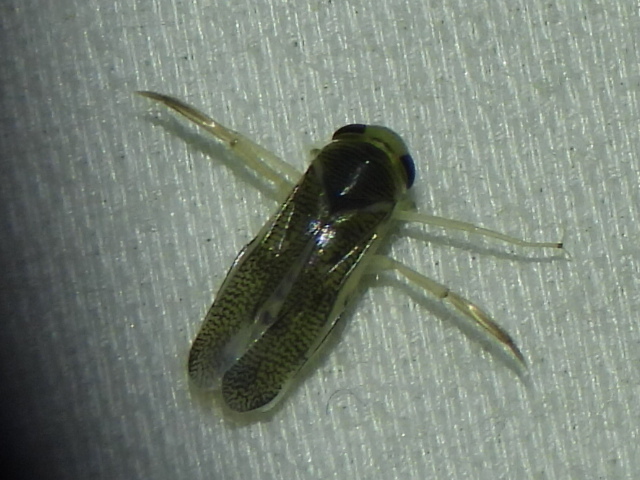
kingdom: Animalia
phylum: Arthropoda
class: Insecta
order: Hemiptera
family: Corixidae
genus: Trichocorixa
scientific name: Trichocorixa
